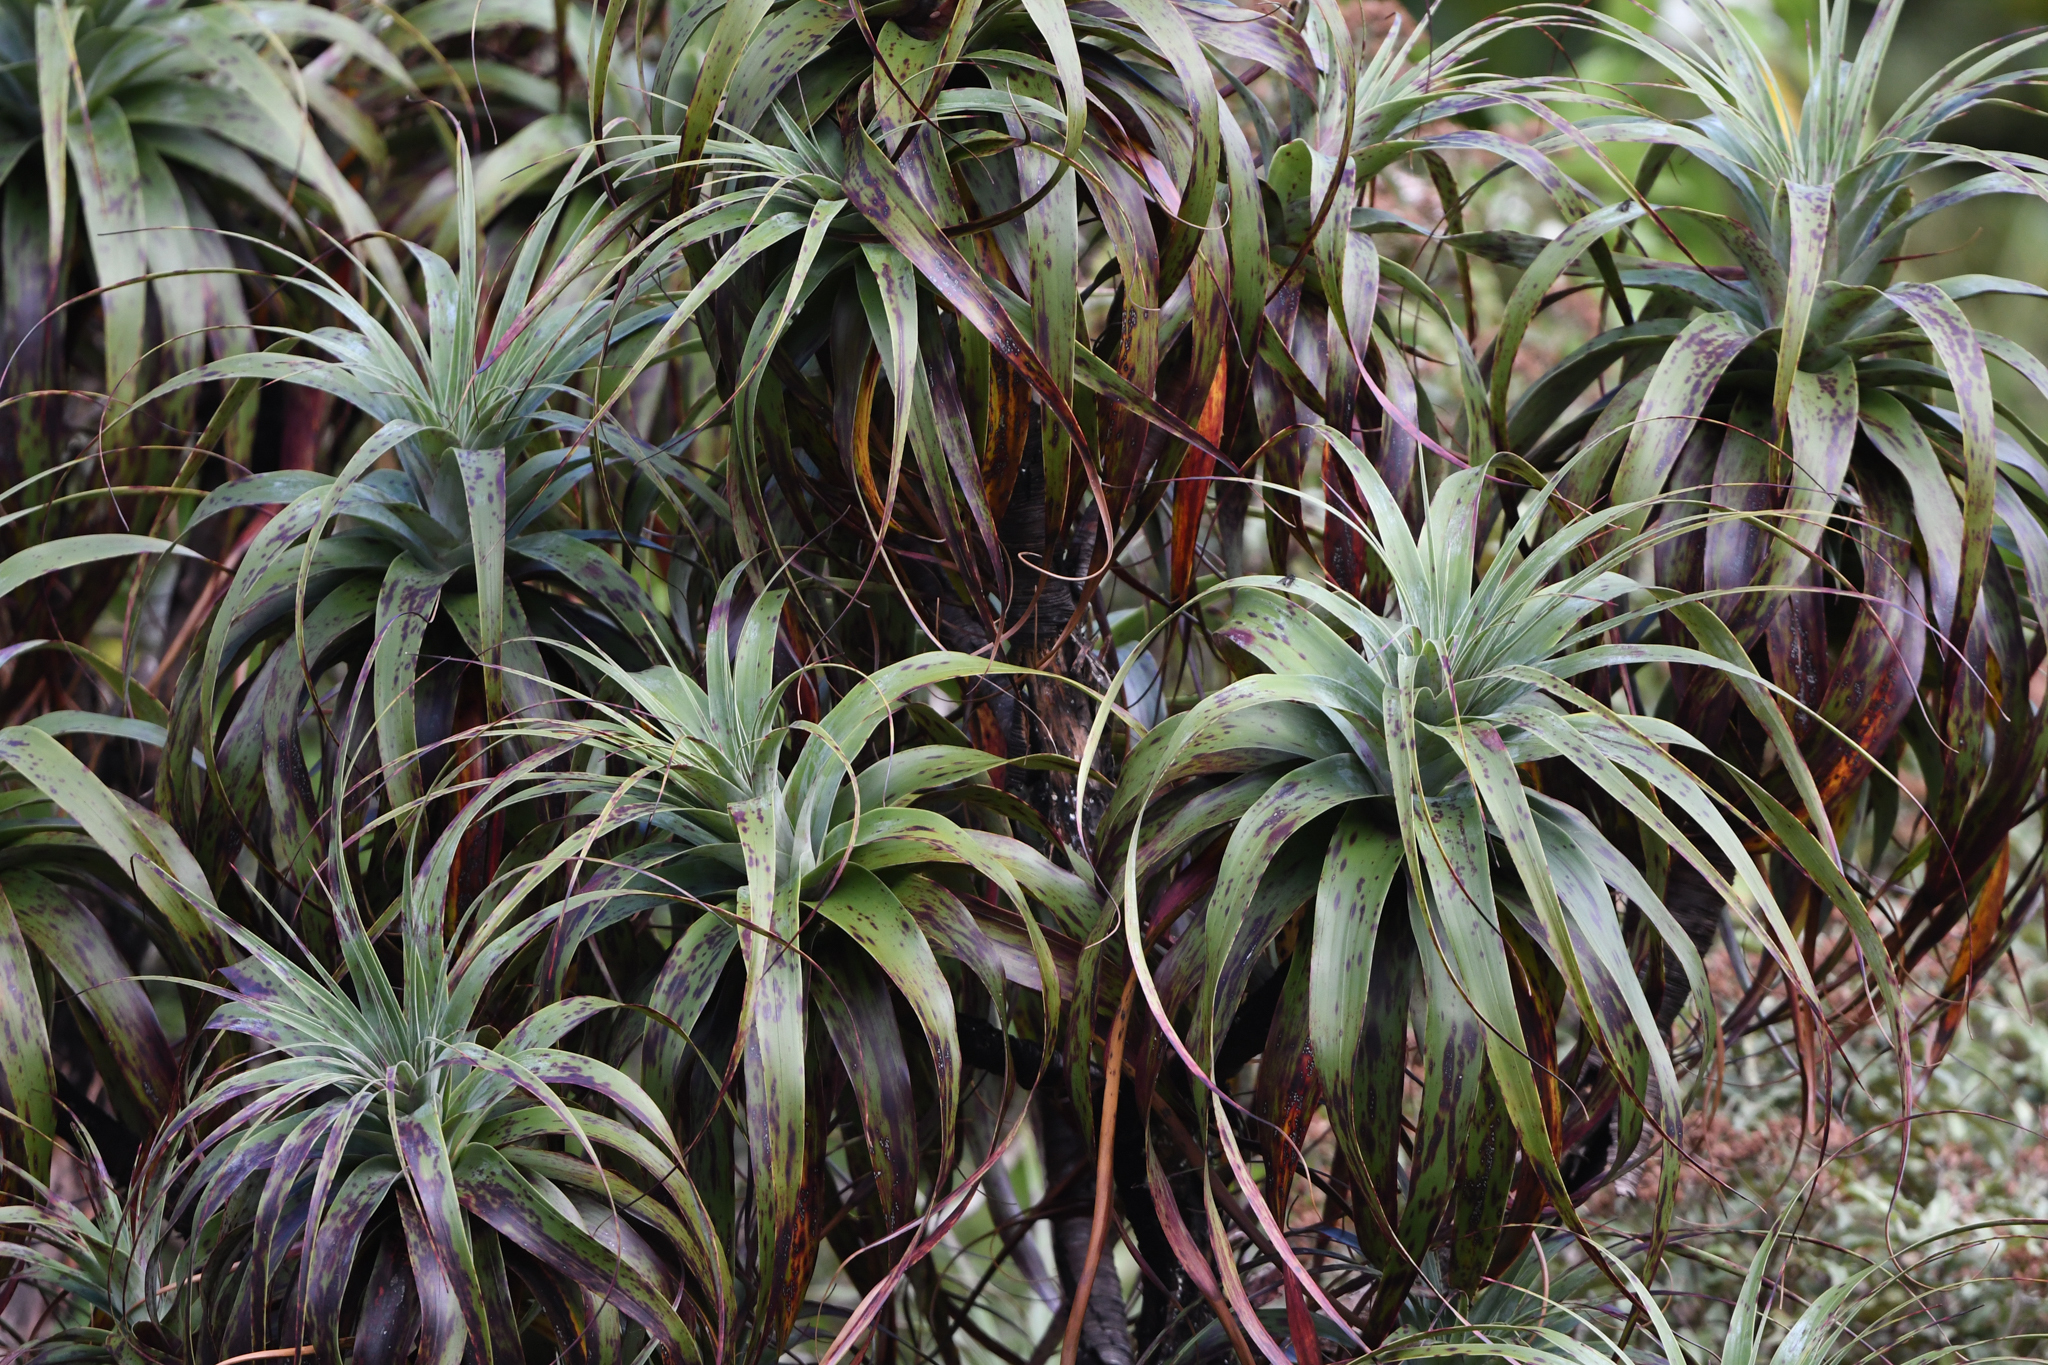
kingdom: Plantae
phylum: Tracheophyta
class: Magnoliopsida
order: Ericales
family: Ericaceae
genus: Dracophyllum
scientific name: Dracophyllum traversii
